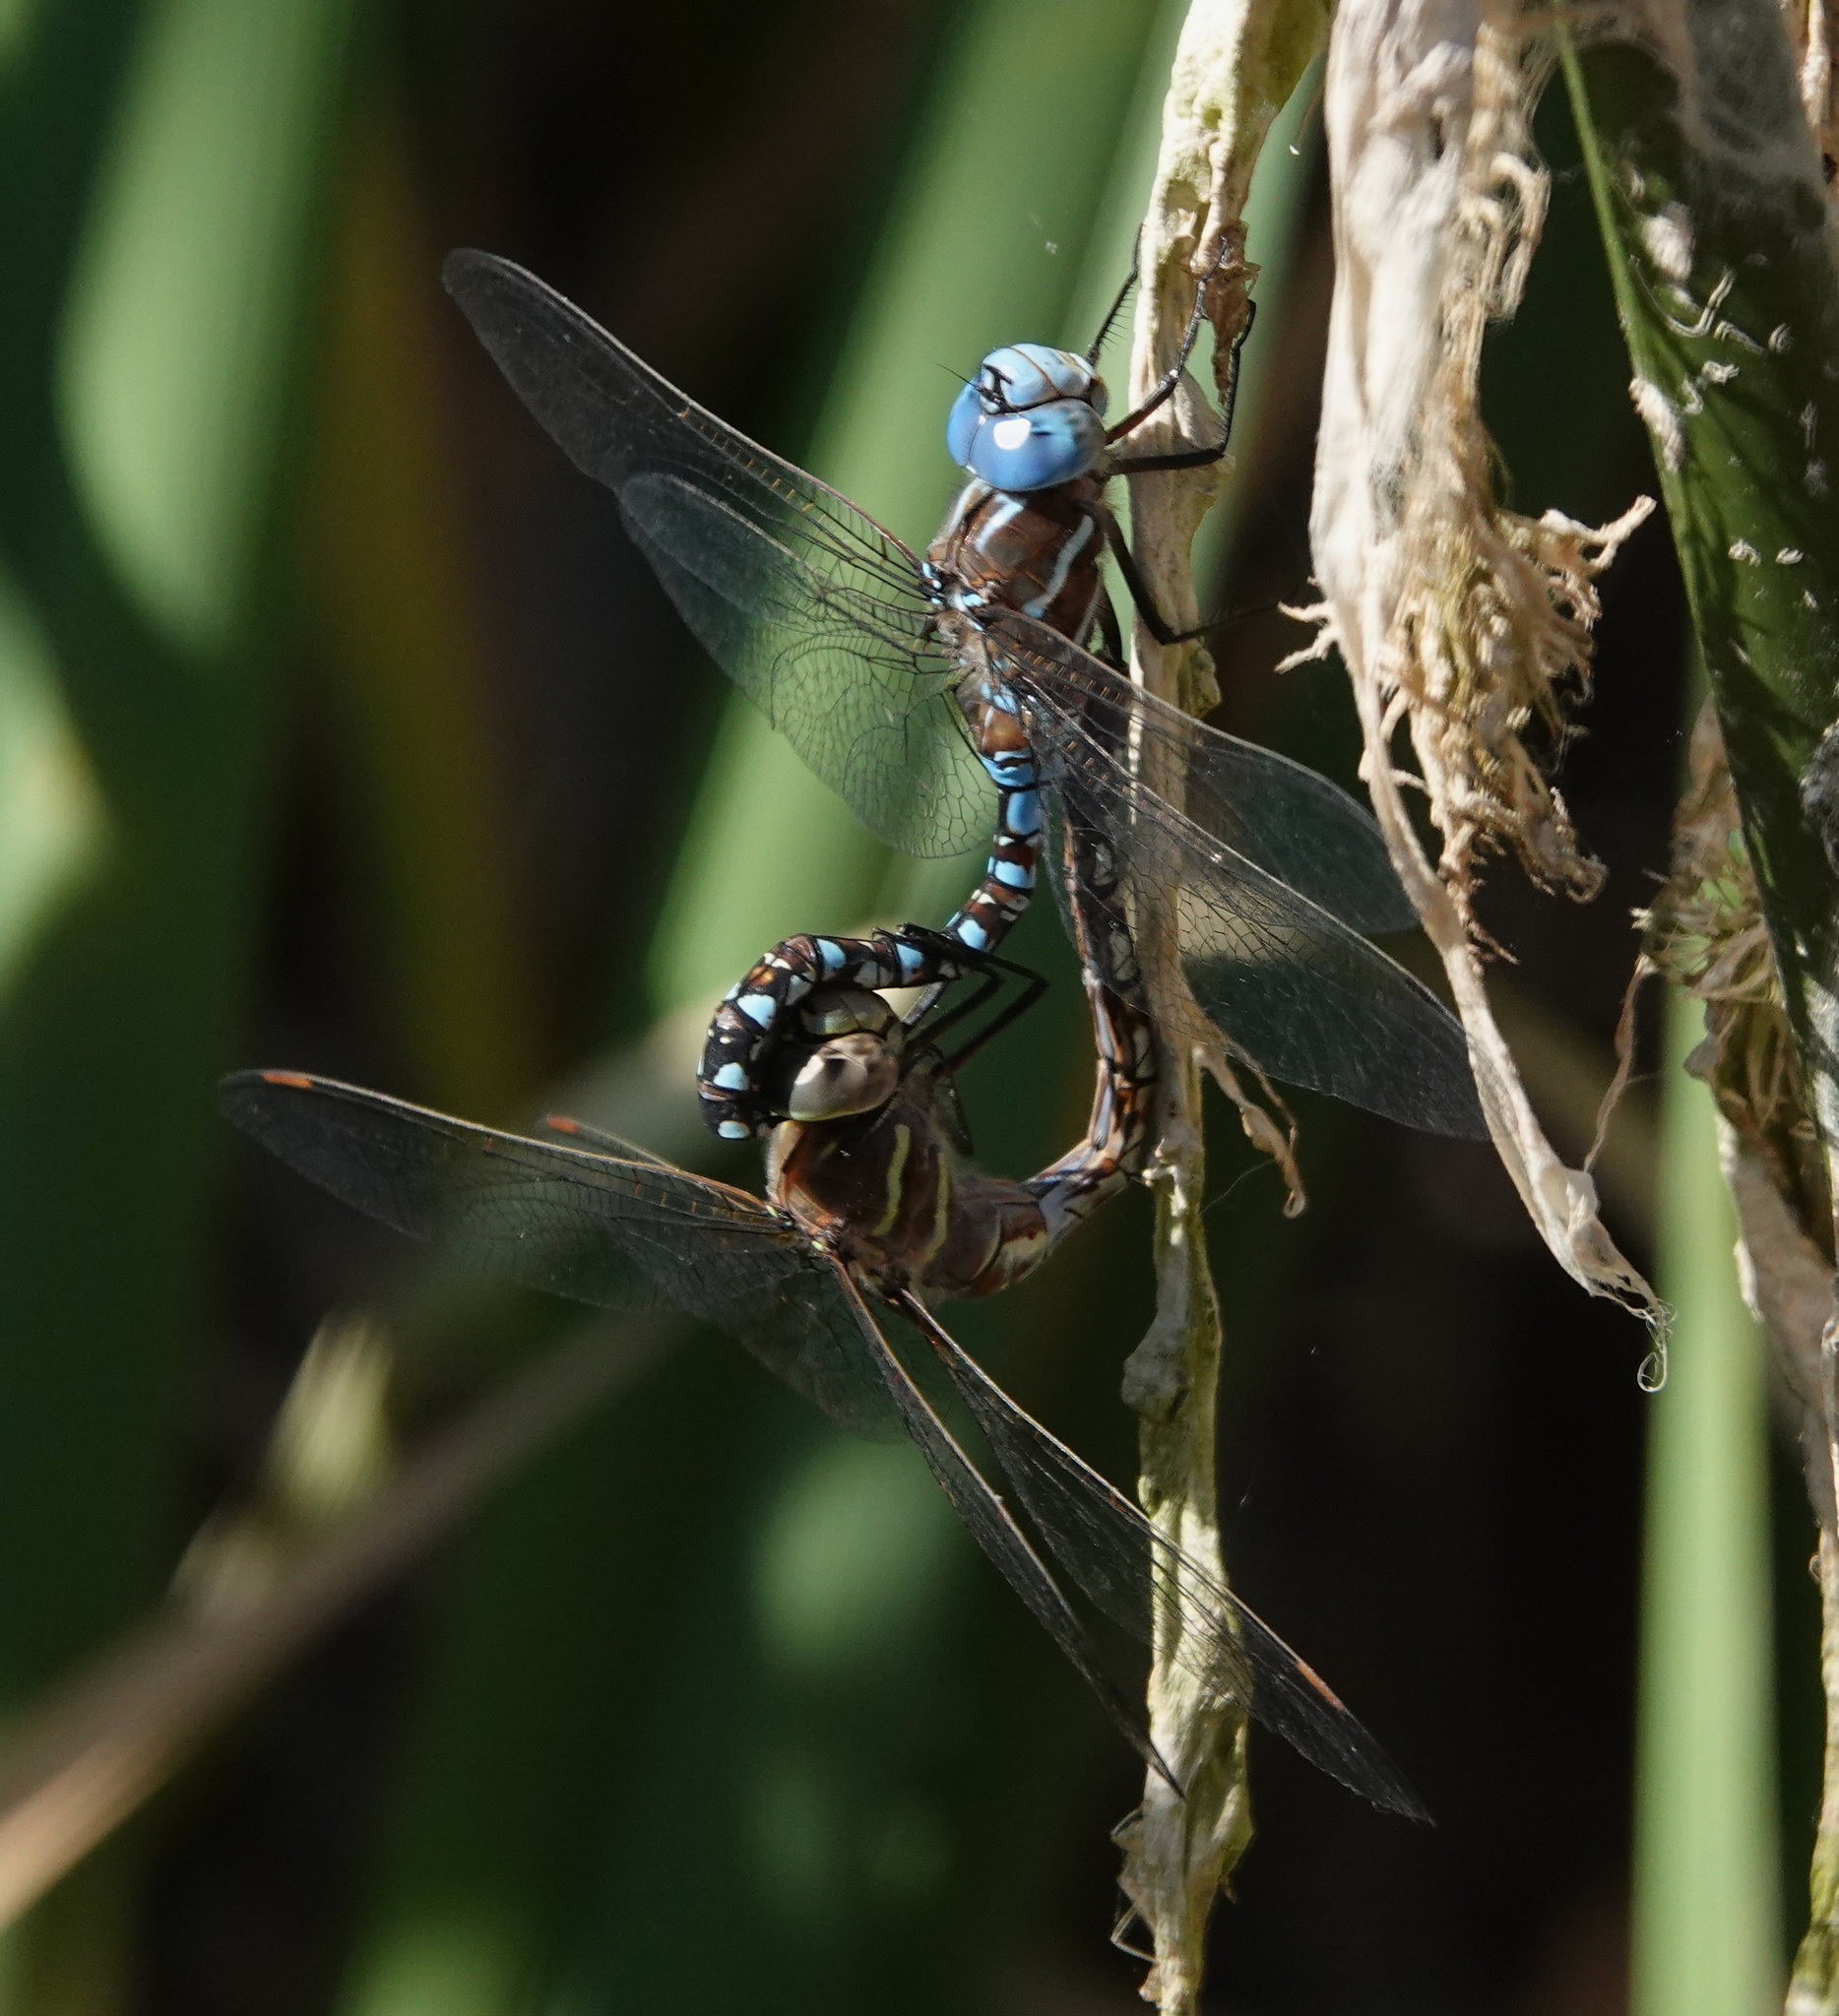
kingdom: Animalia
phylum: Arthropoda
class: Insecta
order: Odonata
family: Aeshnidae
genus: Rhionaeschna
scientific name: Rhionaeschna multicolor
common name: Blue-eyed darner
